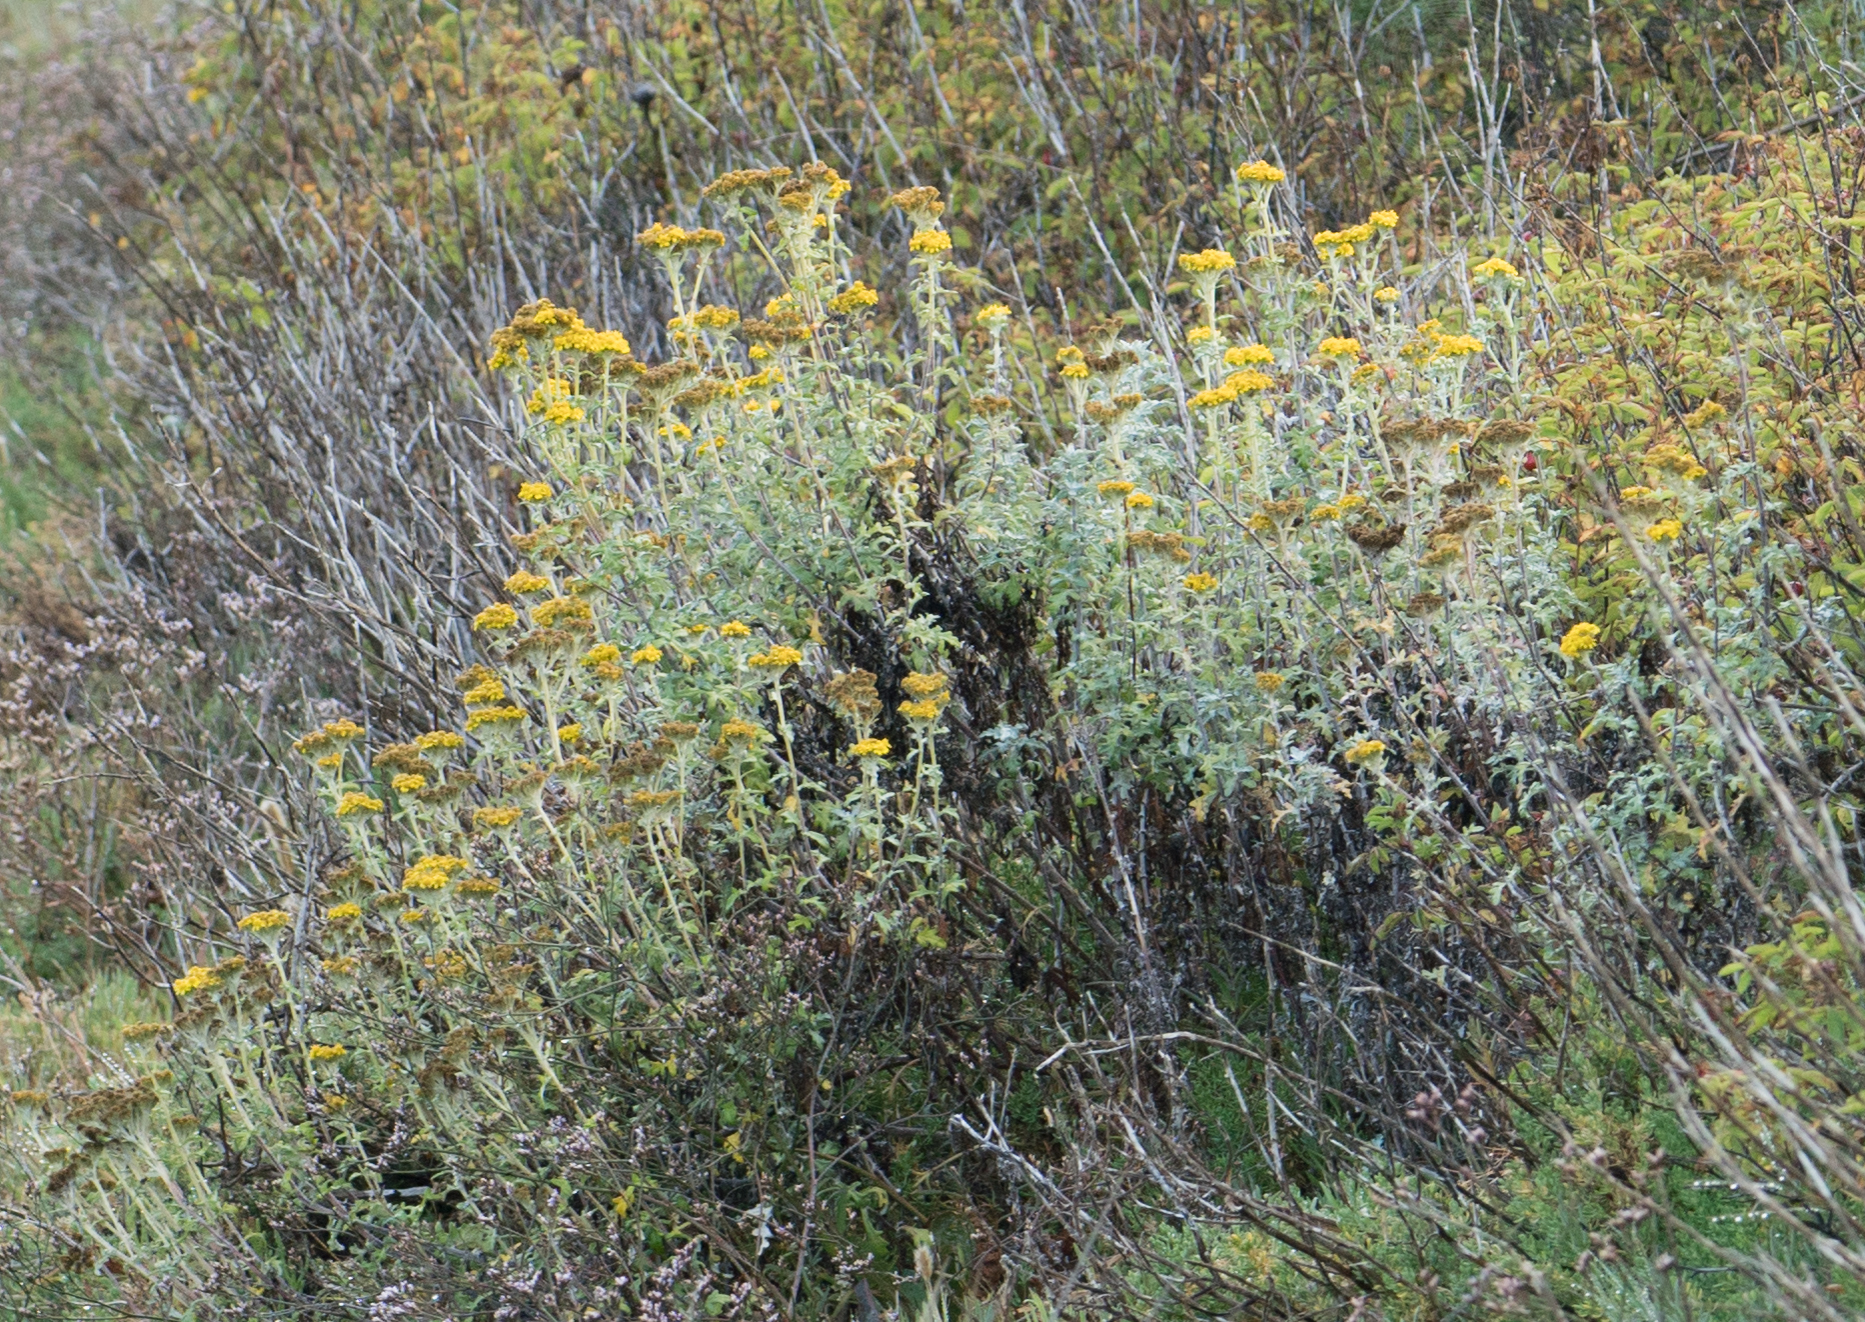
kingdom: Plantae
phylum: Tracheophyta
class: Magnoliopsida
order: Asterales
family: Asteraceae
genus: Eriophyllum
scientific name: Eriophyllum confertiflorum
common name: Golden-yarrow
